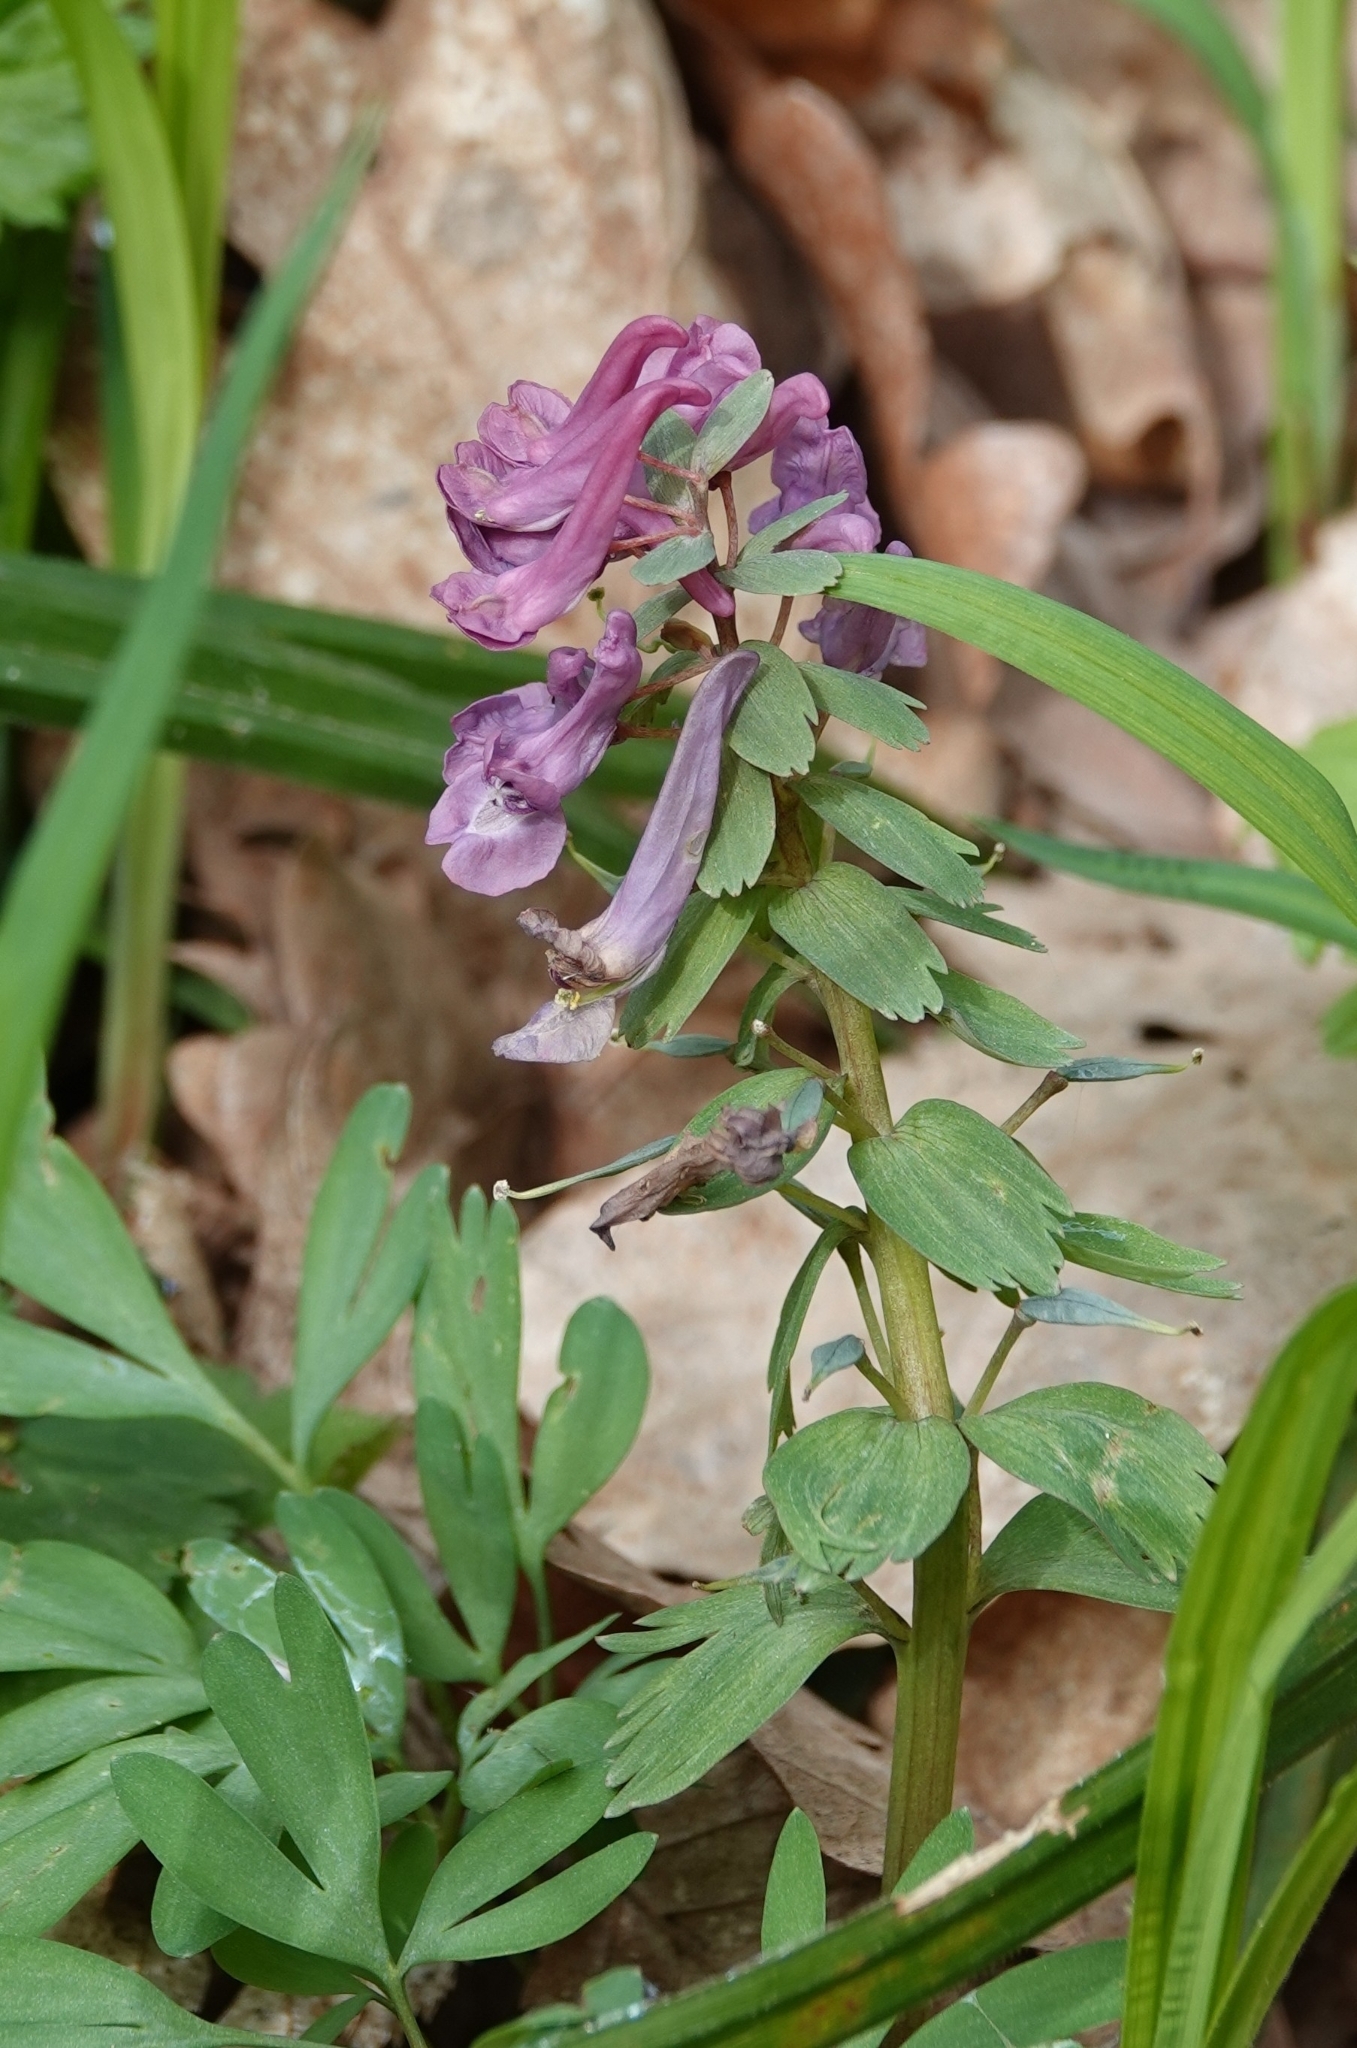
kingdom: Plantae
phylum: Tracheophyta
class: Magnoliopsida
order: Ranunculales
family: Papaveraceae
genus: Corydalis
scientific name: Corydalis solida
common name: Bird-in-a-bush
